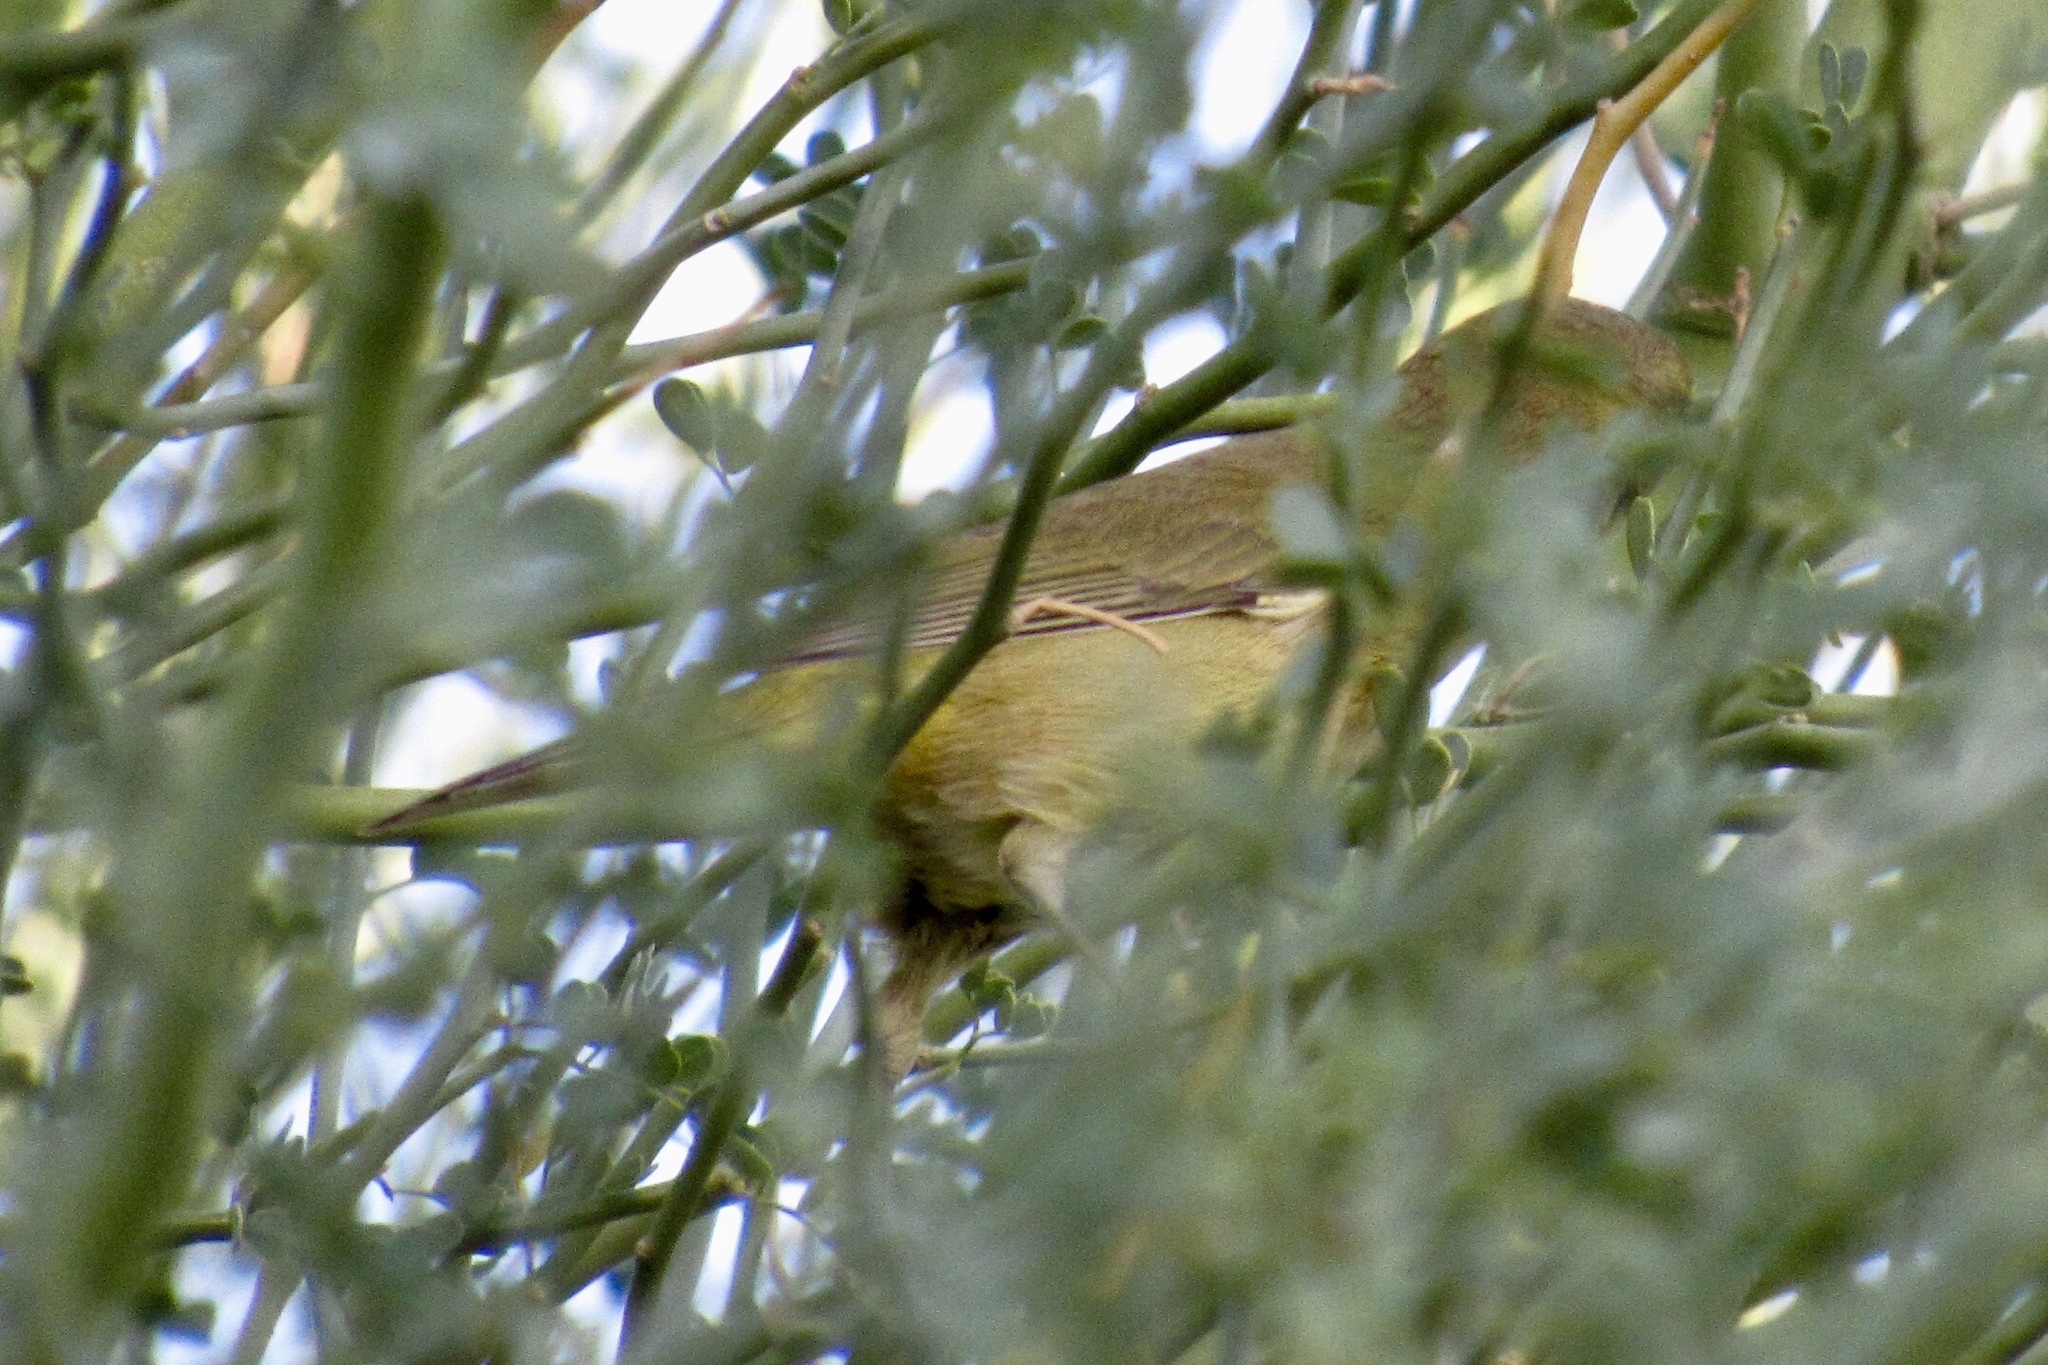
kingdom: Animalia
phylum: Chordata
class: Aves
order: Passeriformes
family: Parulidae
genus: Leiothlypis
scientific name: Leiothlypis celata
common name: Orange-crowned warbler
